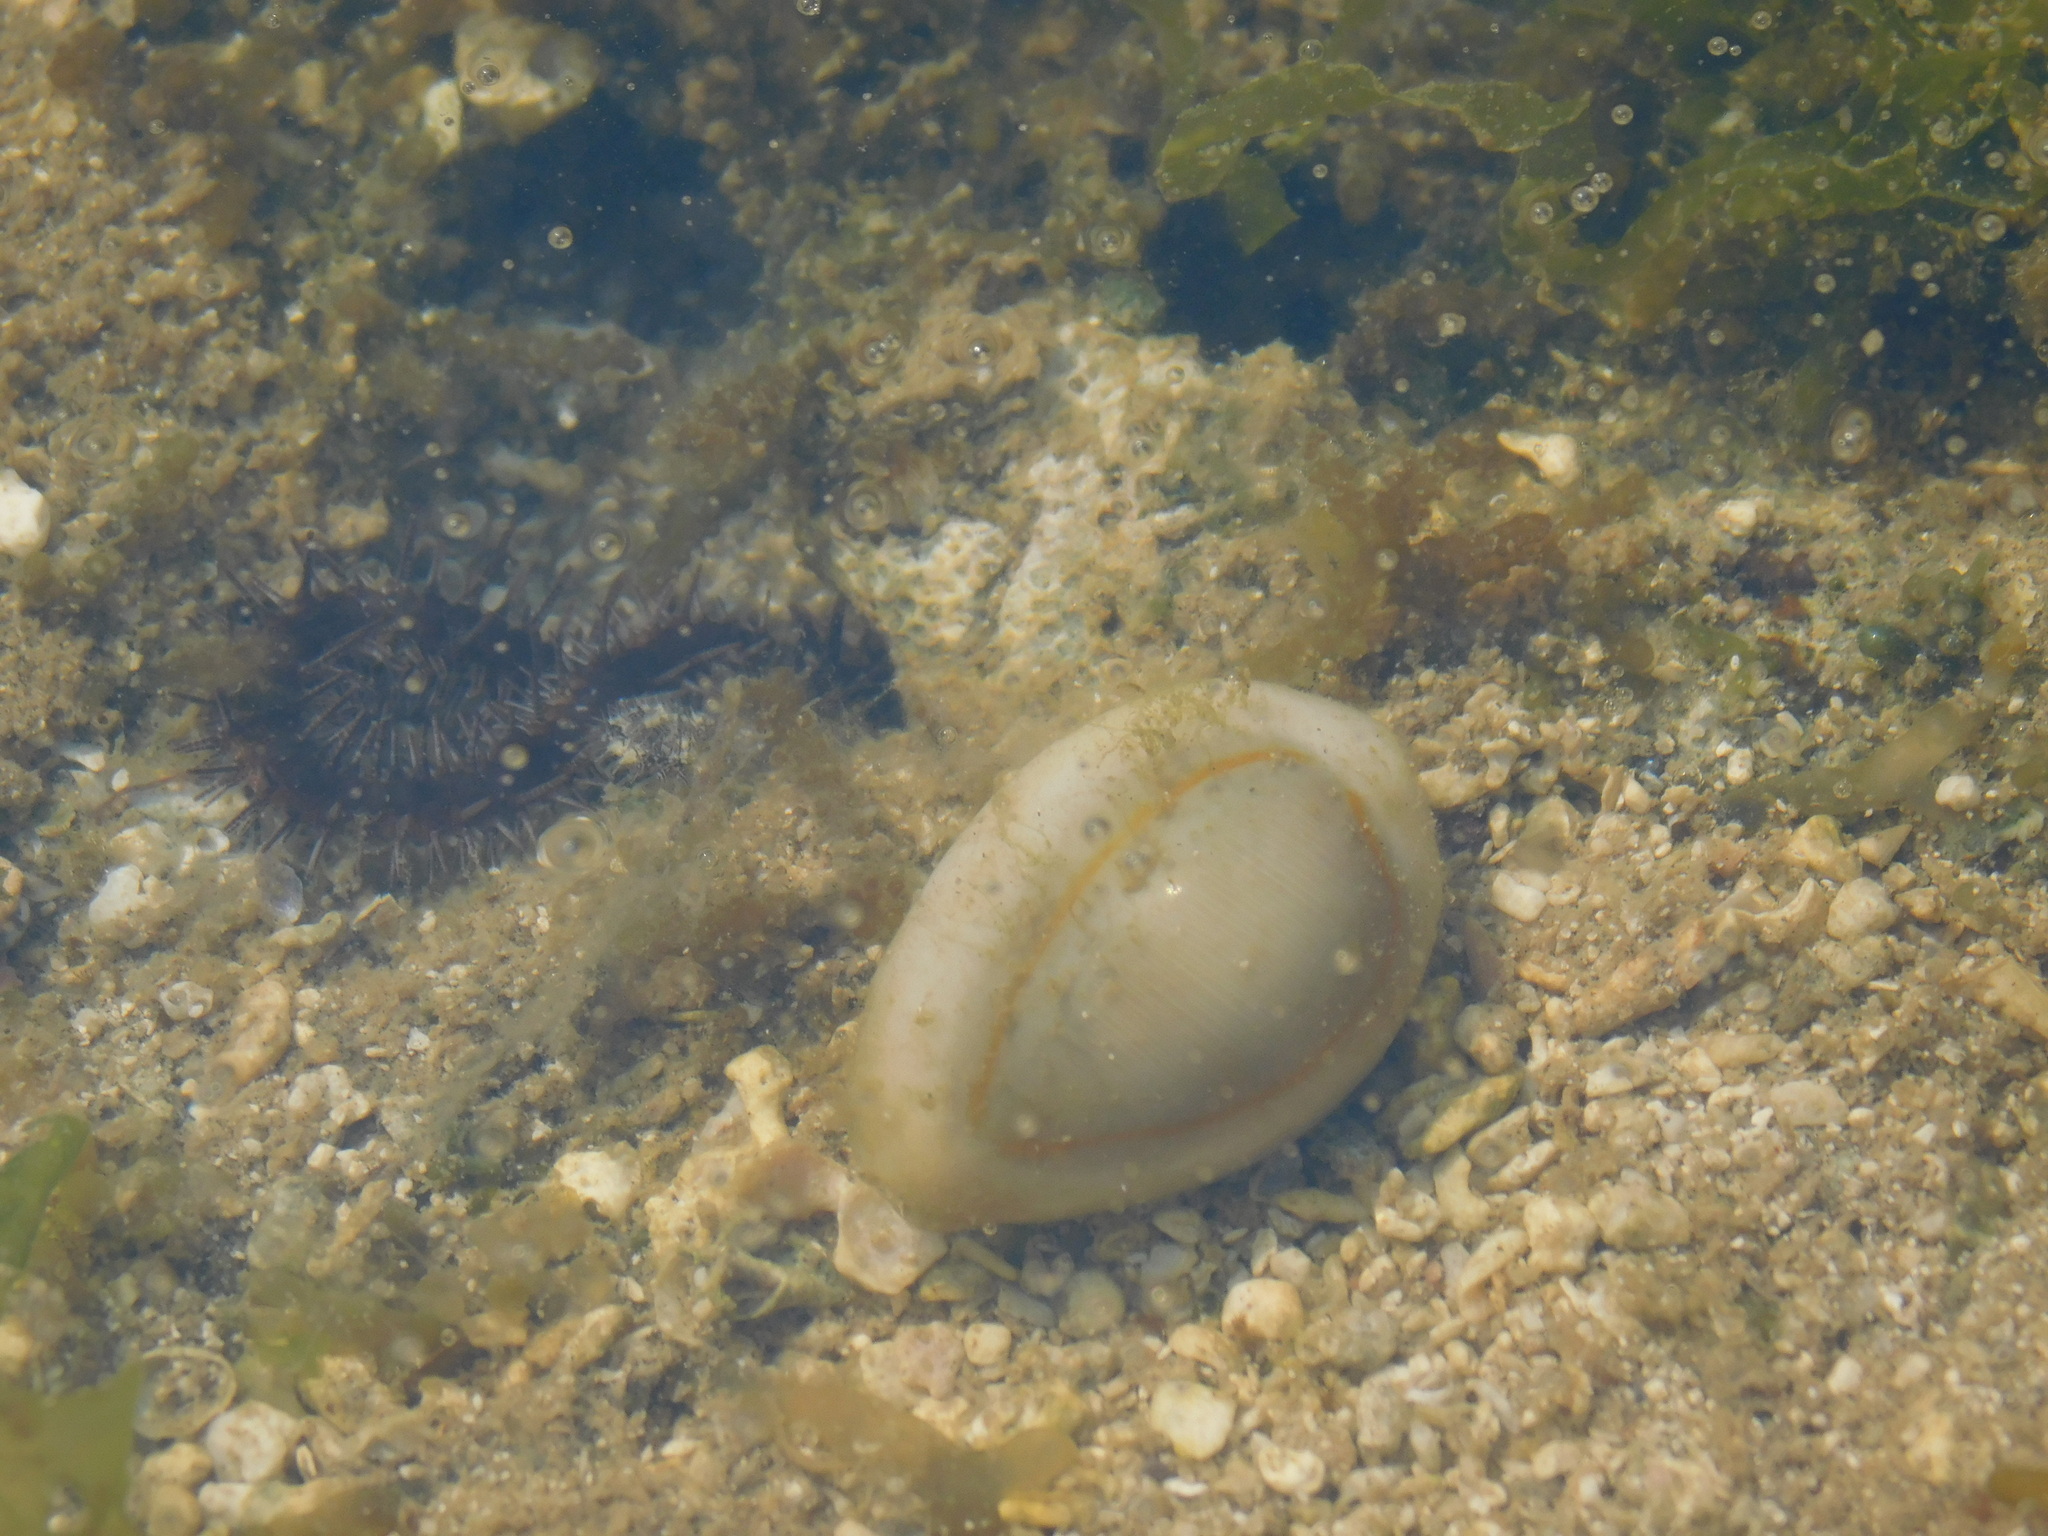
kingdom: Animalia
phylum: Mollusca
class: Gastropoda
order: Littorinimorpha
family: Cypraeidae
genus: Monetaria
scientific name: Monetaria annulus
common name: Ring cowrie
